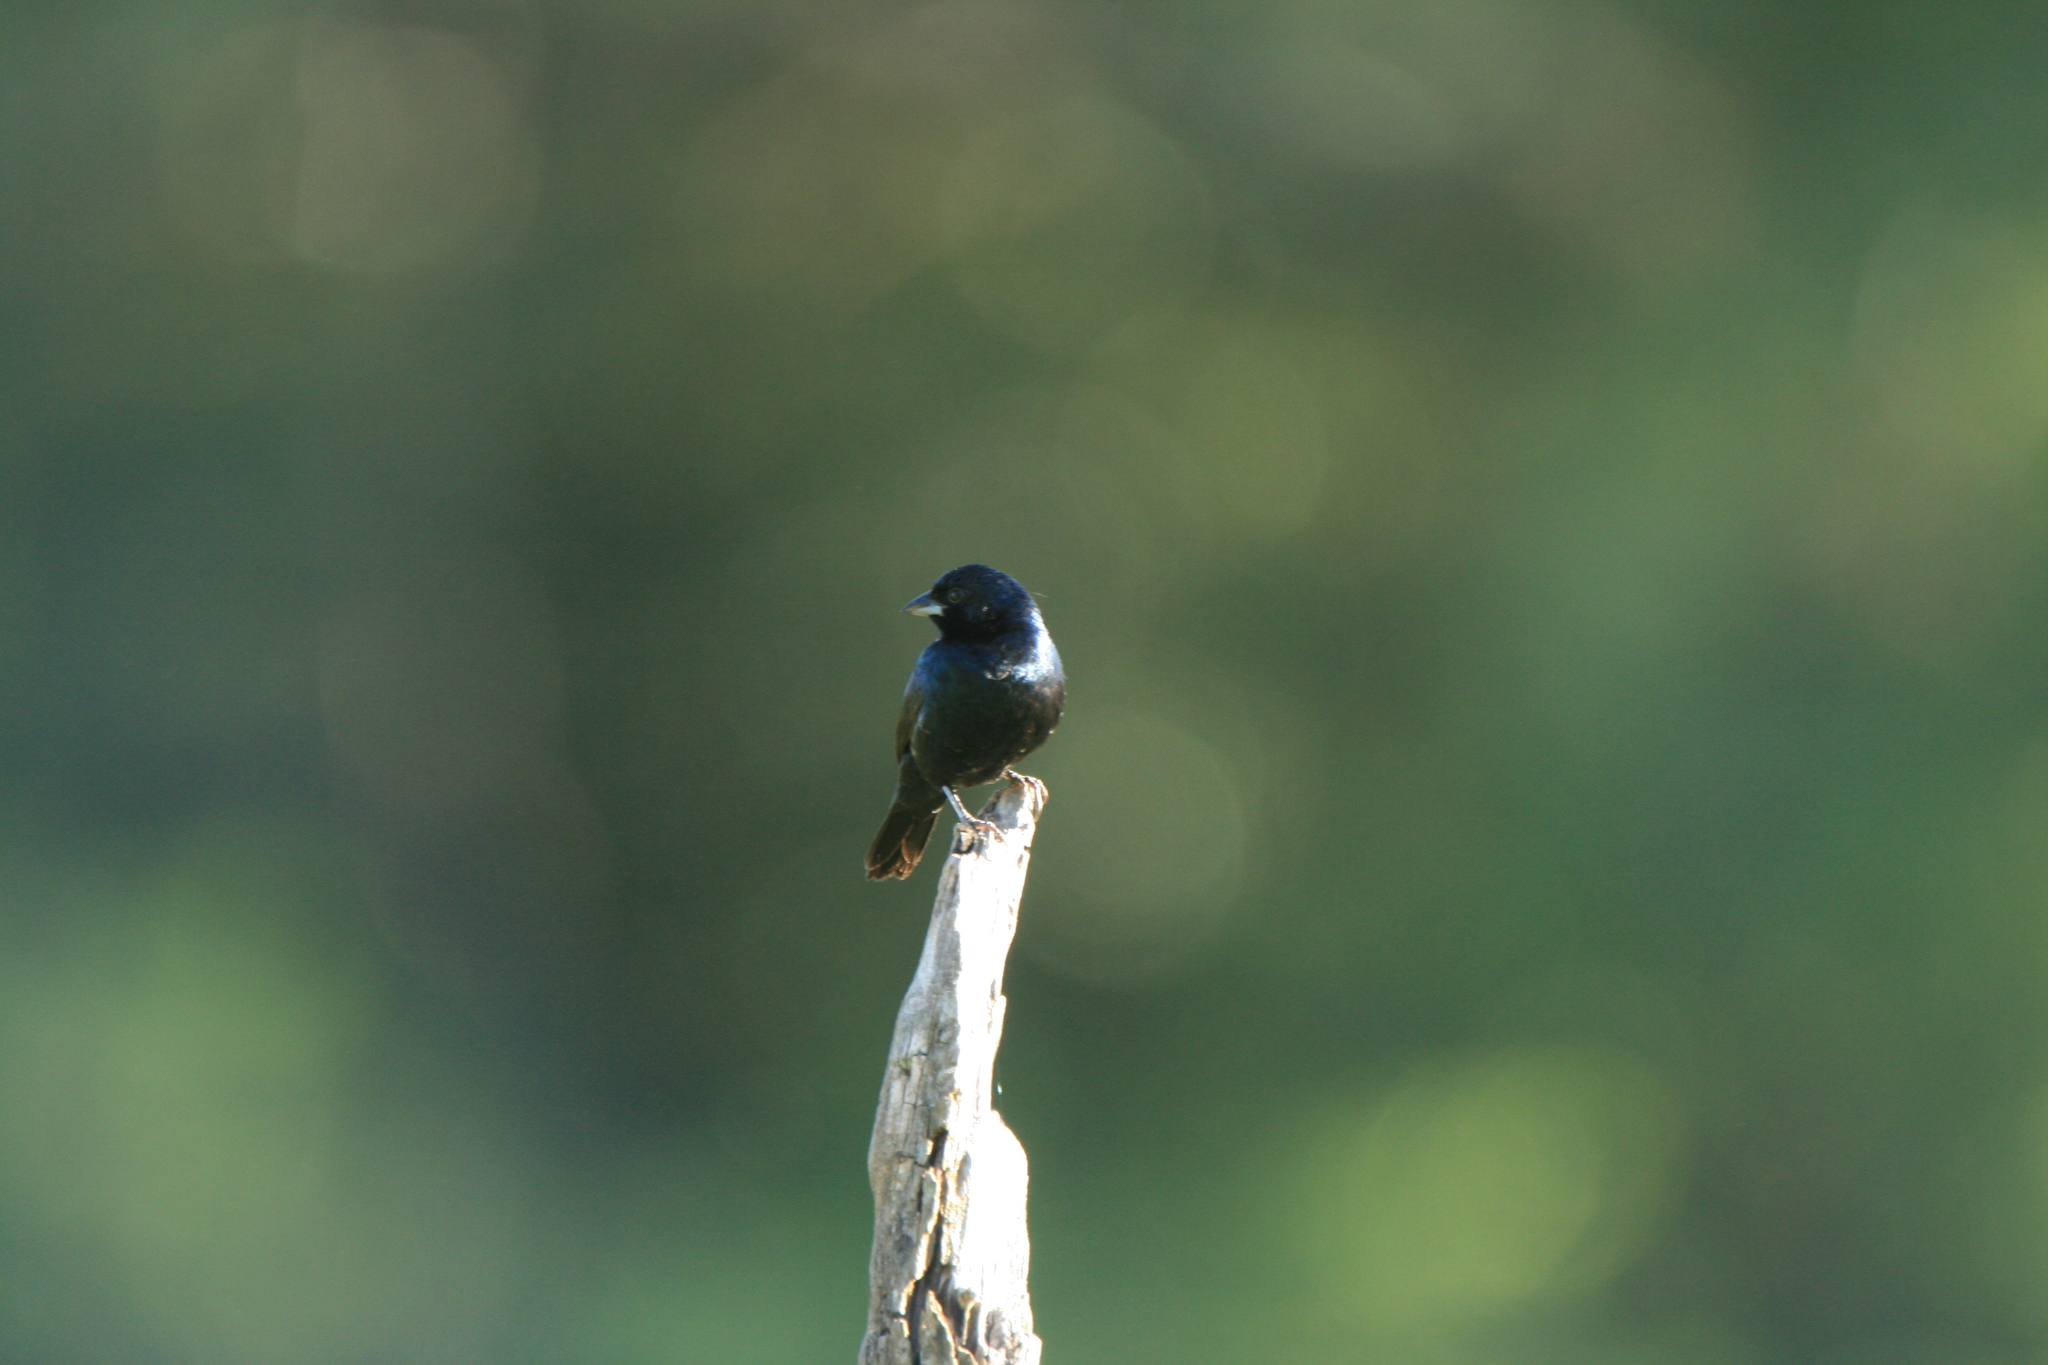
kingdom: Animalia
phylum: Chordata
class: Aves
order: Passeriformes
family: Thraupidae
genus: Volatinia
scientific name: Volatinia jacarina
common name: Blue-black grassquit
